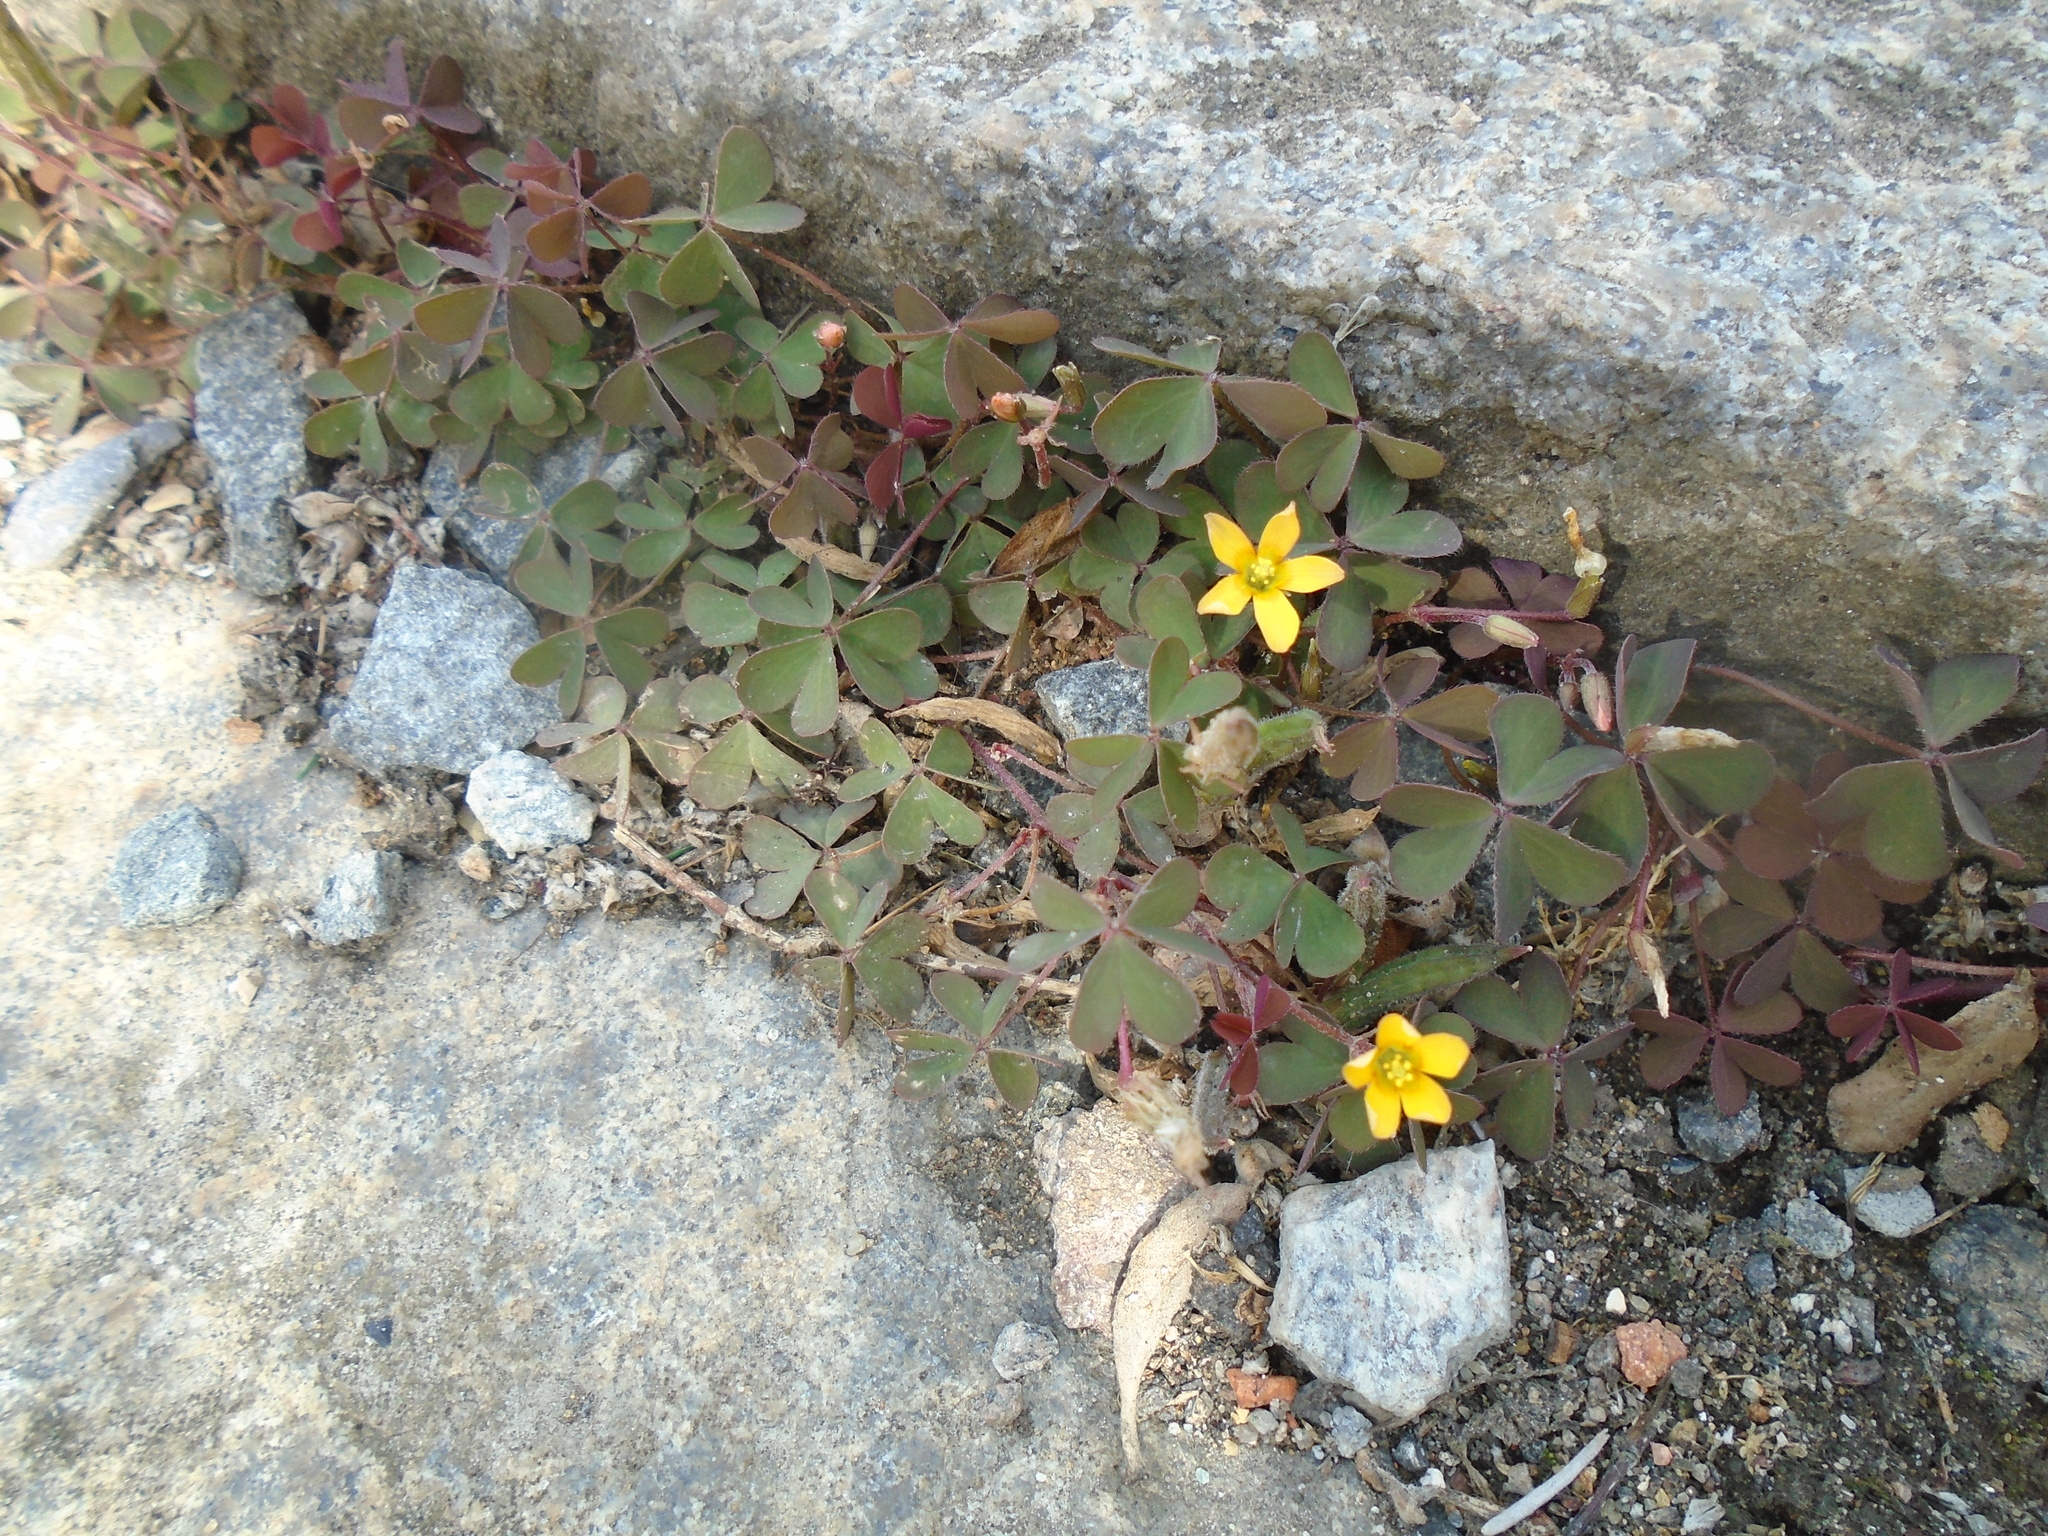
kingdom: Plantae
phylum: Tracheophyta
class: Magnoliopsida
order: Oxalidales
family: Oxalidaceae
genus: Oxalis
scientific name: Oxalis corniculata
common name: Procumbent yellow-sorrel
